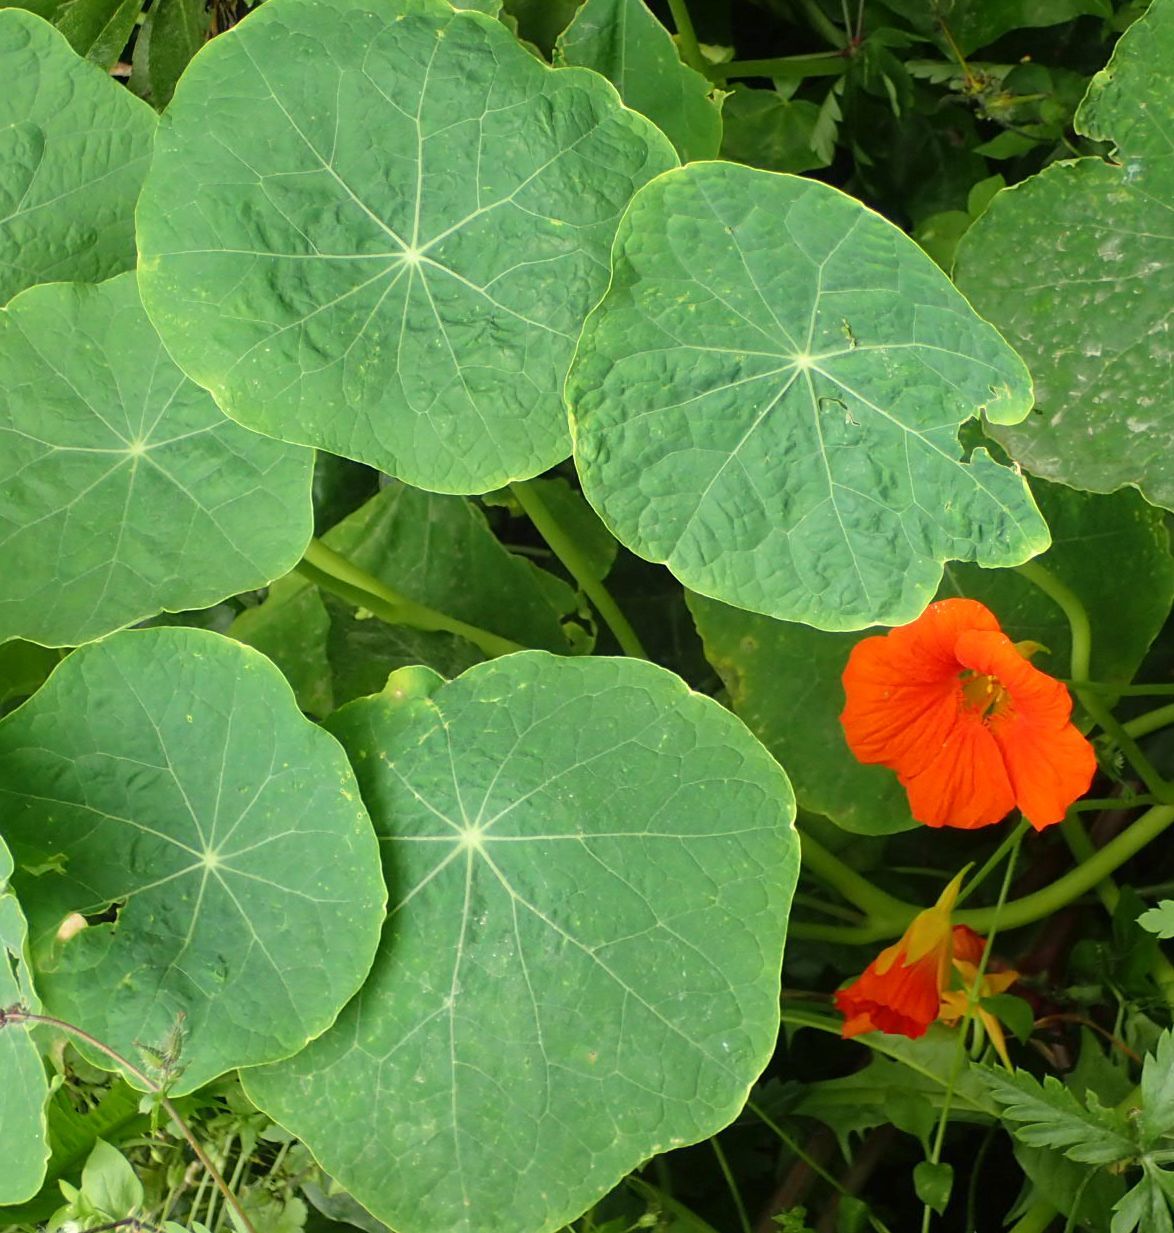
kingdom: Plantae
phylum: Tracheophyta
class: Magnoliopsida
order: Brassicales
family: Tropaeolaceae
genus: Tropaeolum
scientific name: Tropaeolum majus
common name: Nasturtium
